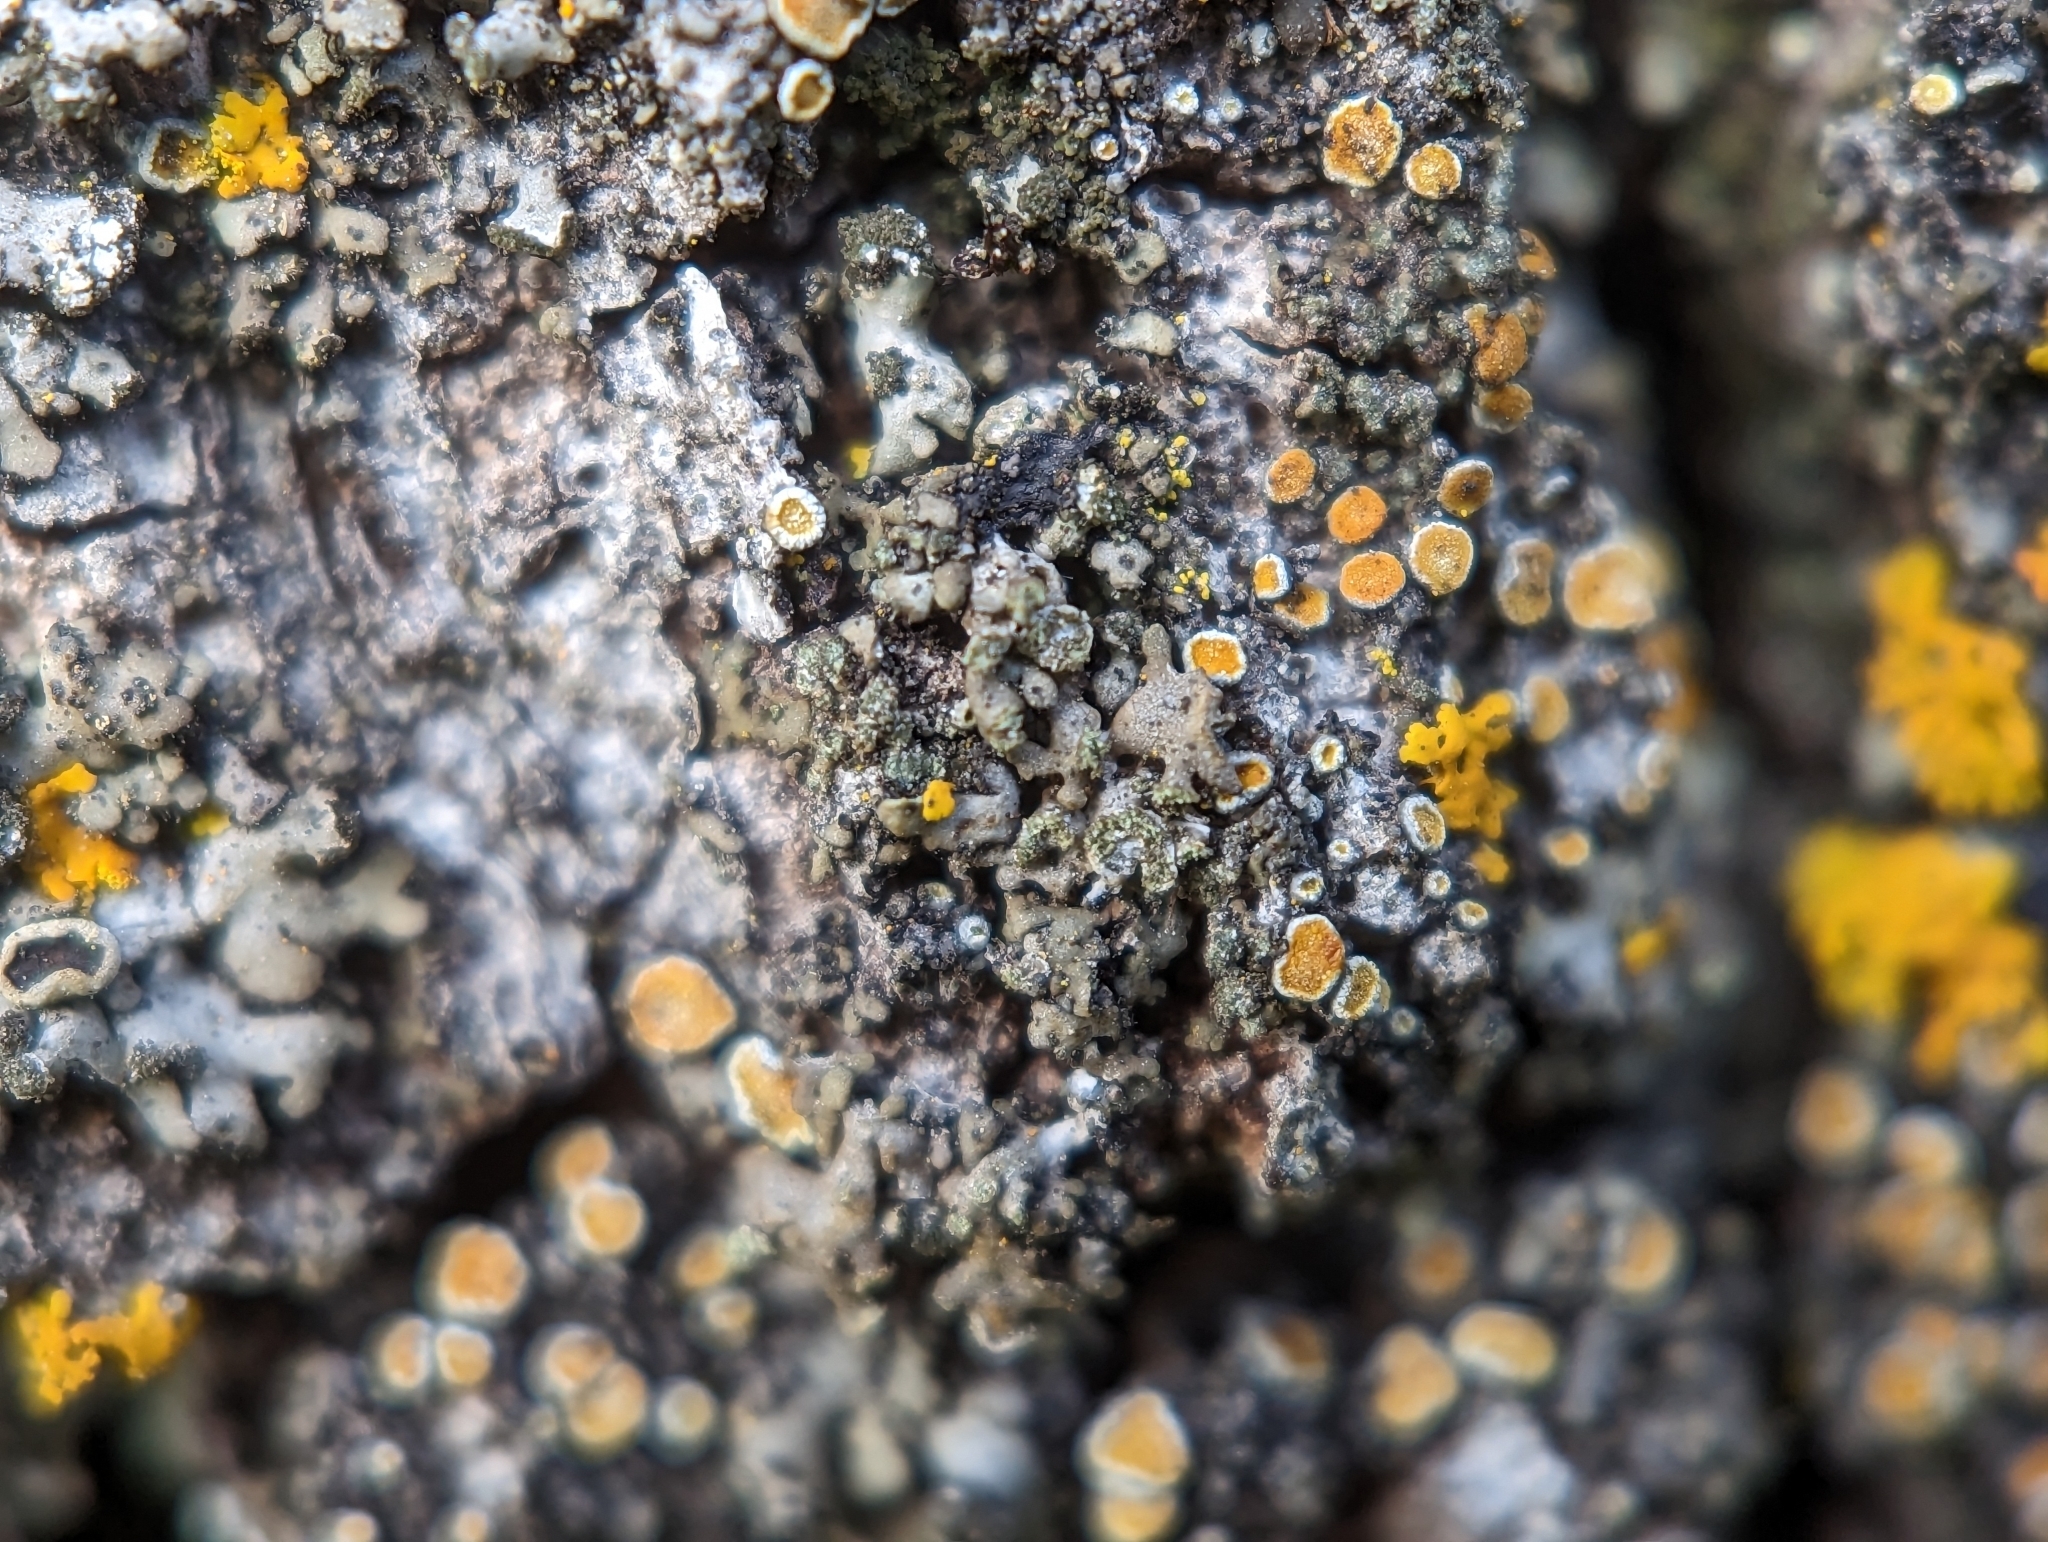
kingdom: Fungi
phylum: Ascomycota
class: Lecanoromycetes
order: Teloschistales
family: Teloschistaceae
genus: Caloplaca
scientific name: Caloplaca cerina
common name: Gray-rimmed firedot lichen
